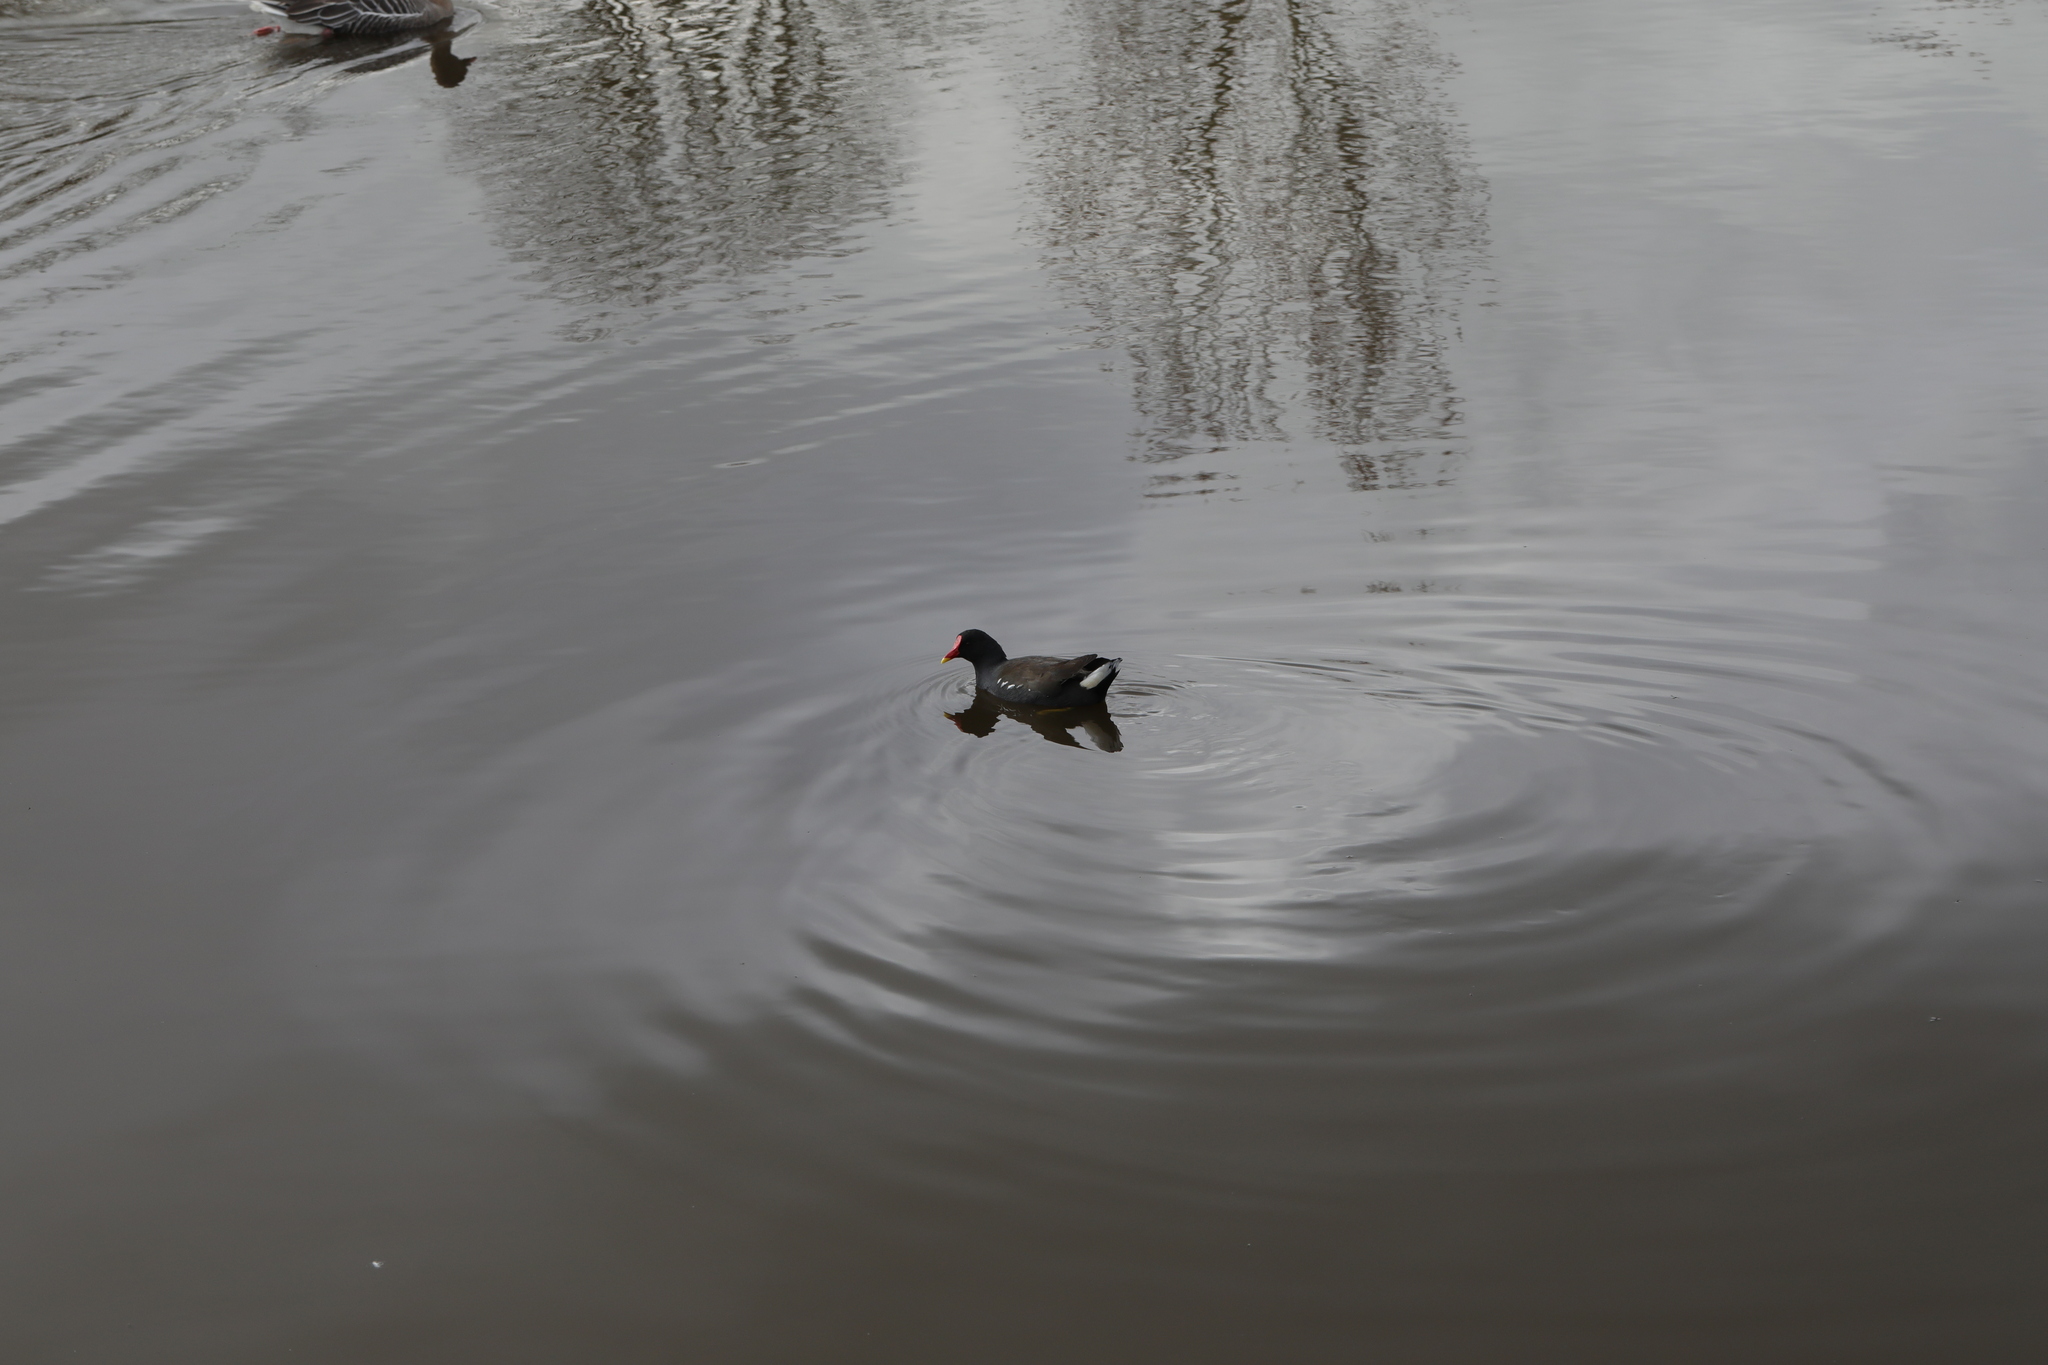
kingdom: Animalia
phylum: Chordata
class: Aves
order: Gruiformes
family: Rallidae
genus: Gallinula
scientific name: Gallinula chloropus
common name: Common moorhen
